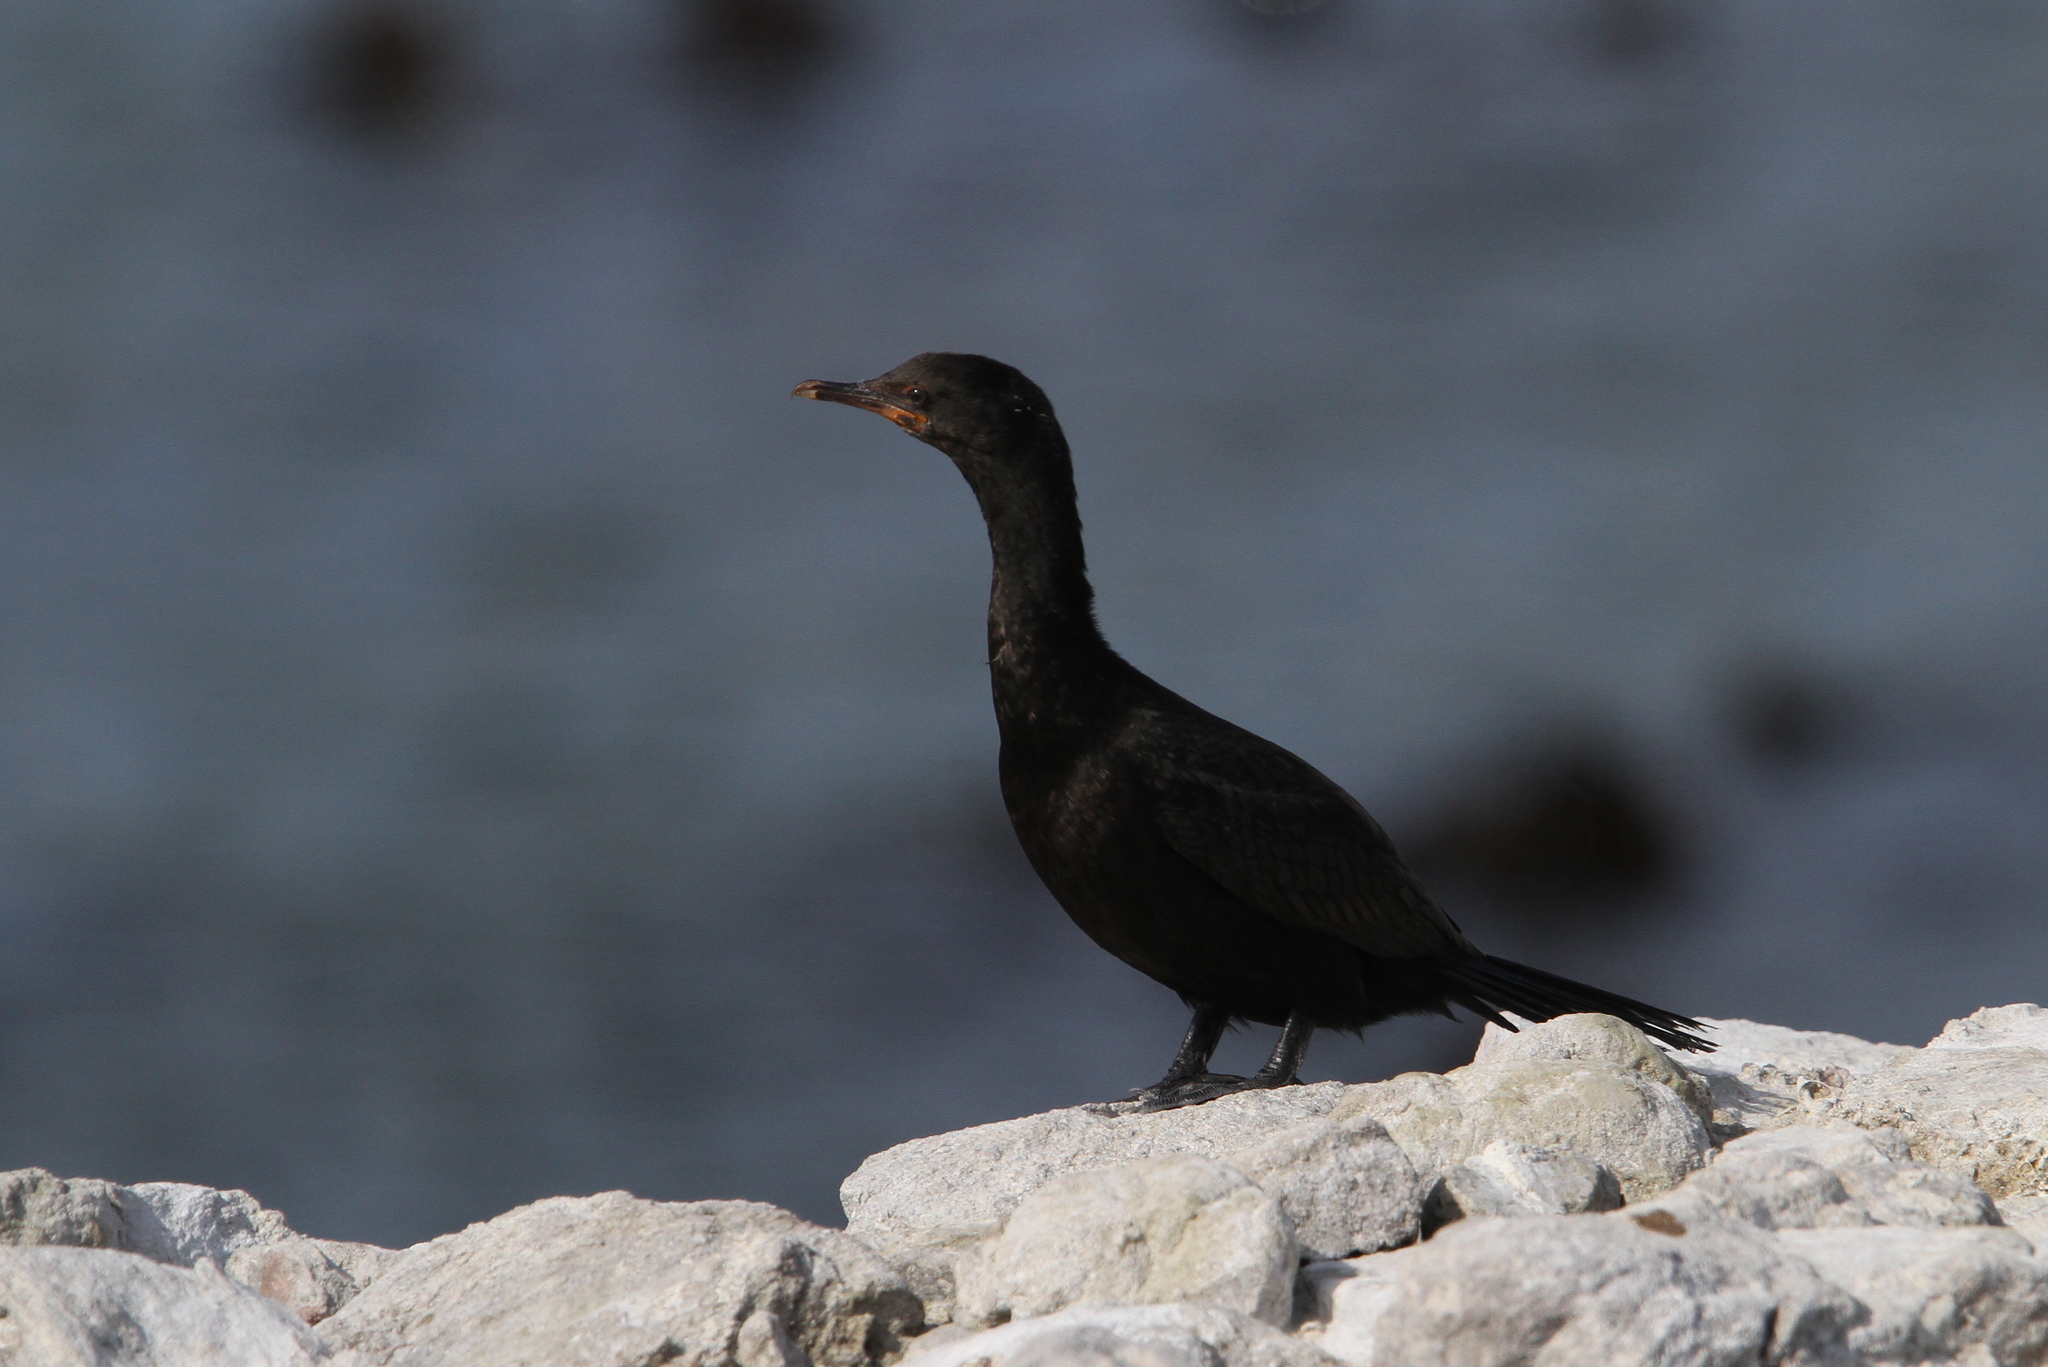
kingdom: Animalia
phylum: Chordata
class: Aves
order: Suliformes
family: Phalacrocoracidae
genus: Microcarbo
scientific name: Microcarbo coronatus
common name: Crowned cormorant
